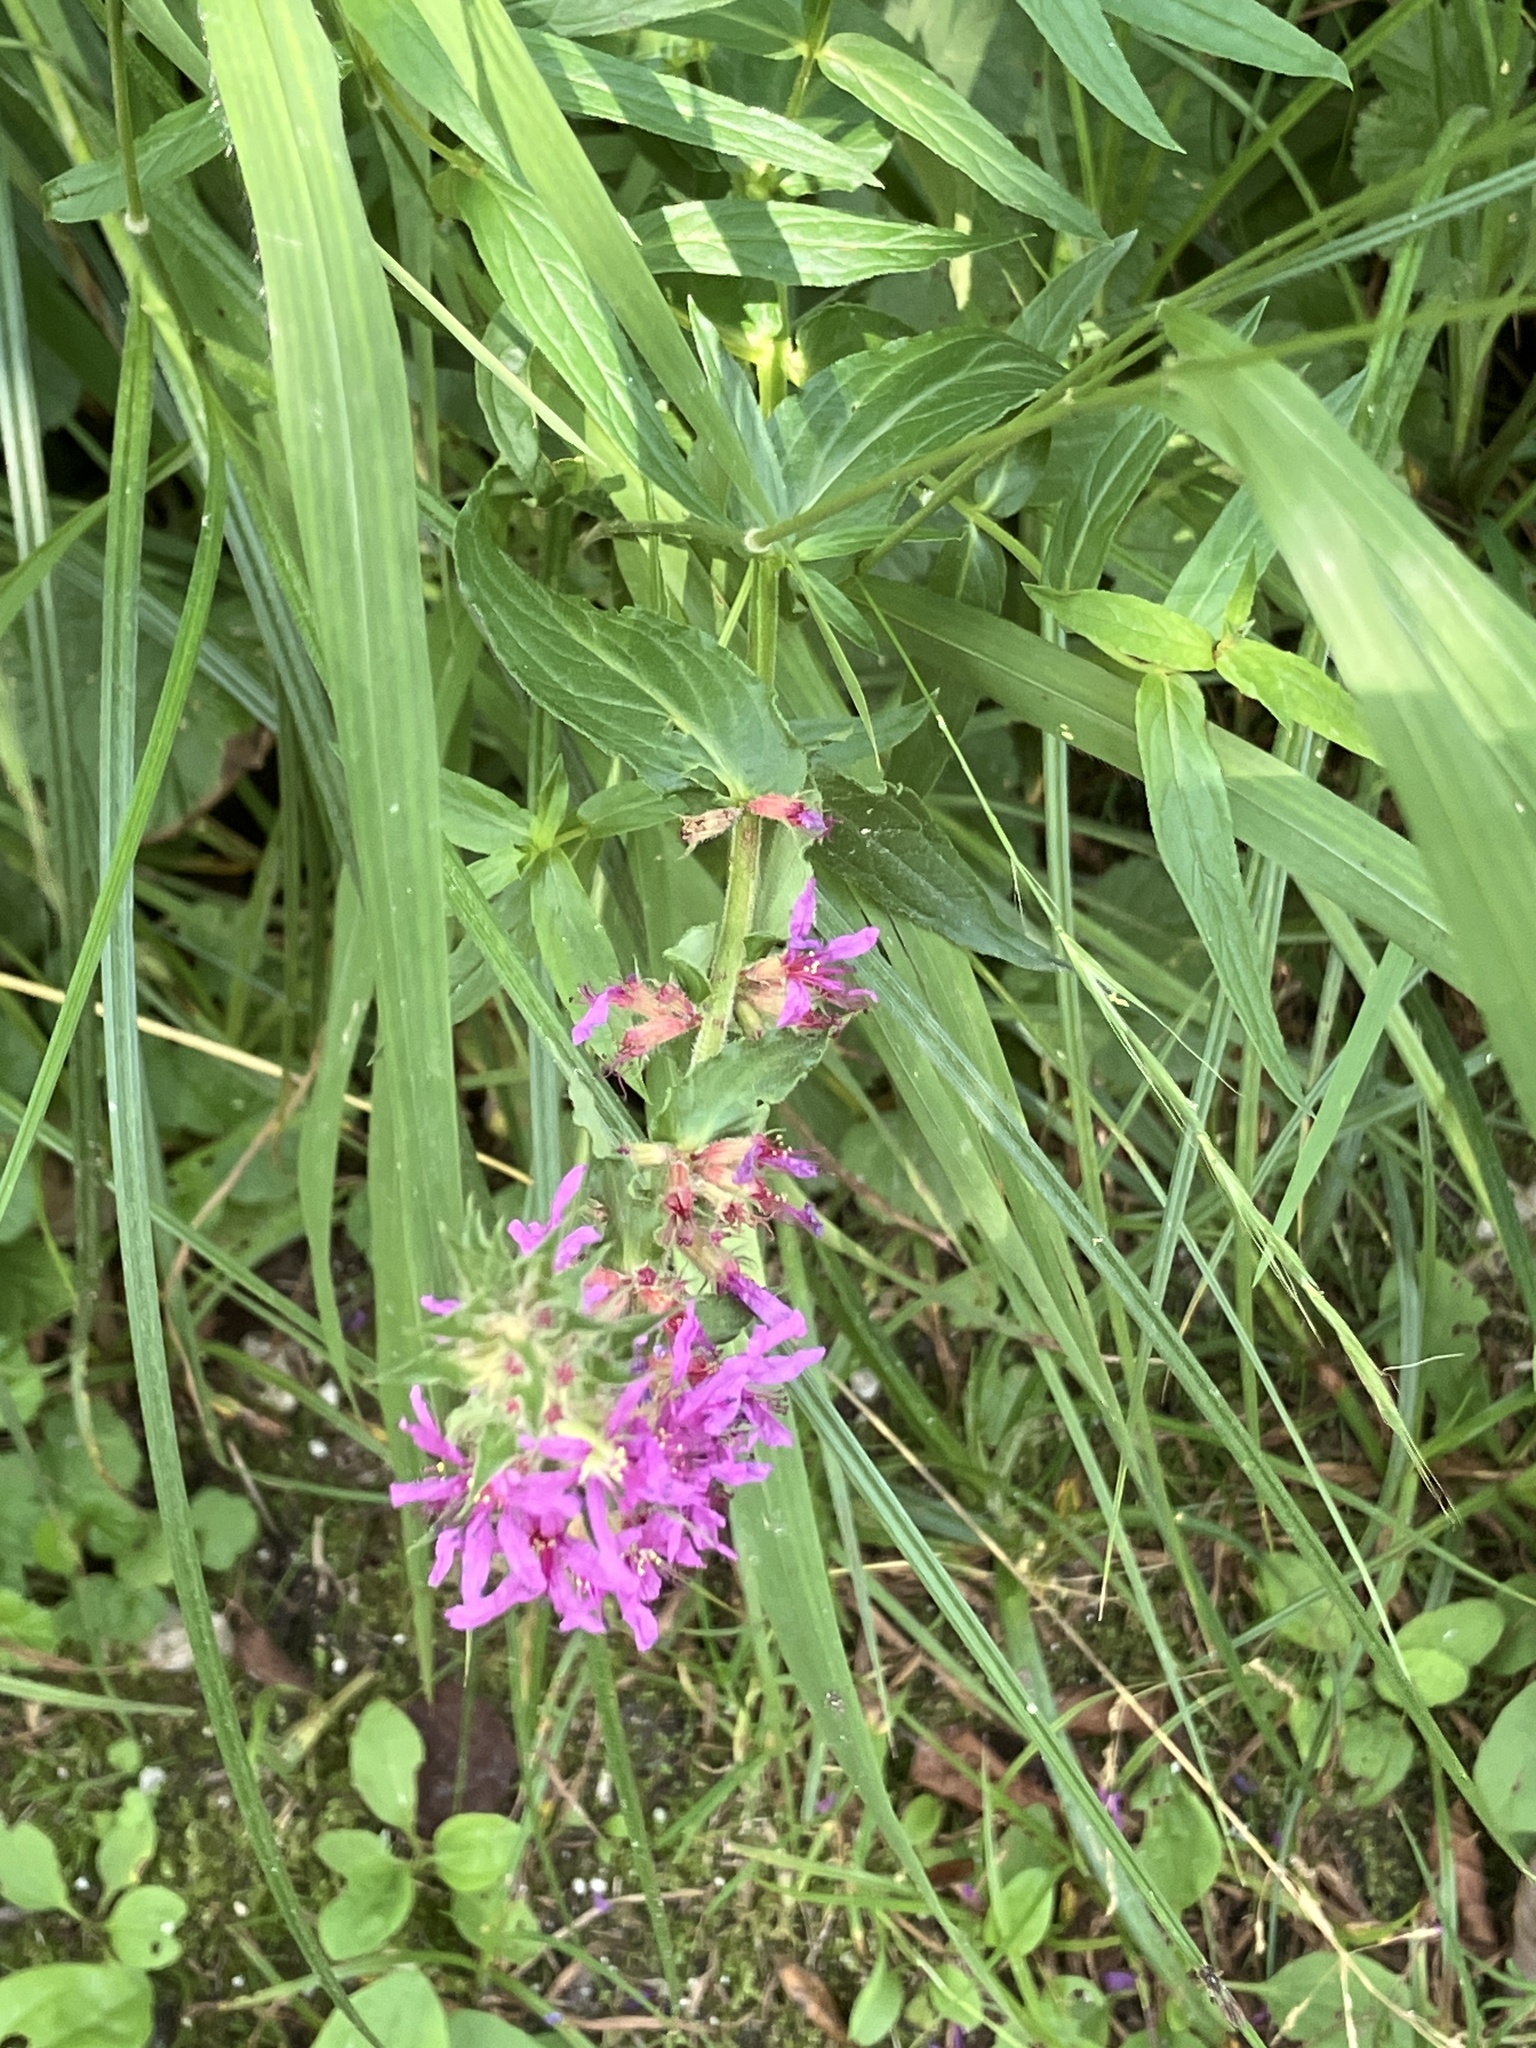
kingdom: Plantae
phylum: Tracheophyta
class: Magnoliopsida
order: Myrtales
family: Lythraceae
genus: Lythrum
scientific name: Lythrum salicaria
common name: Purple loosestrife
